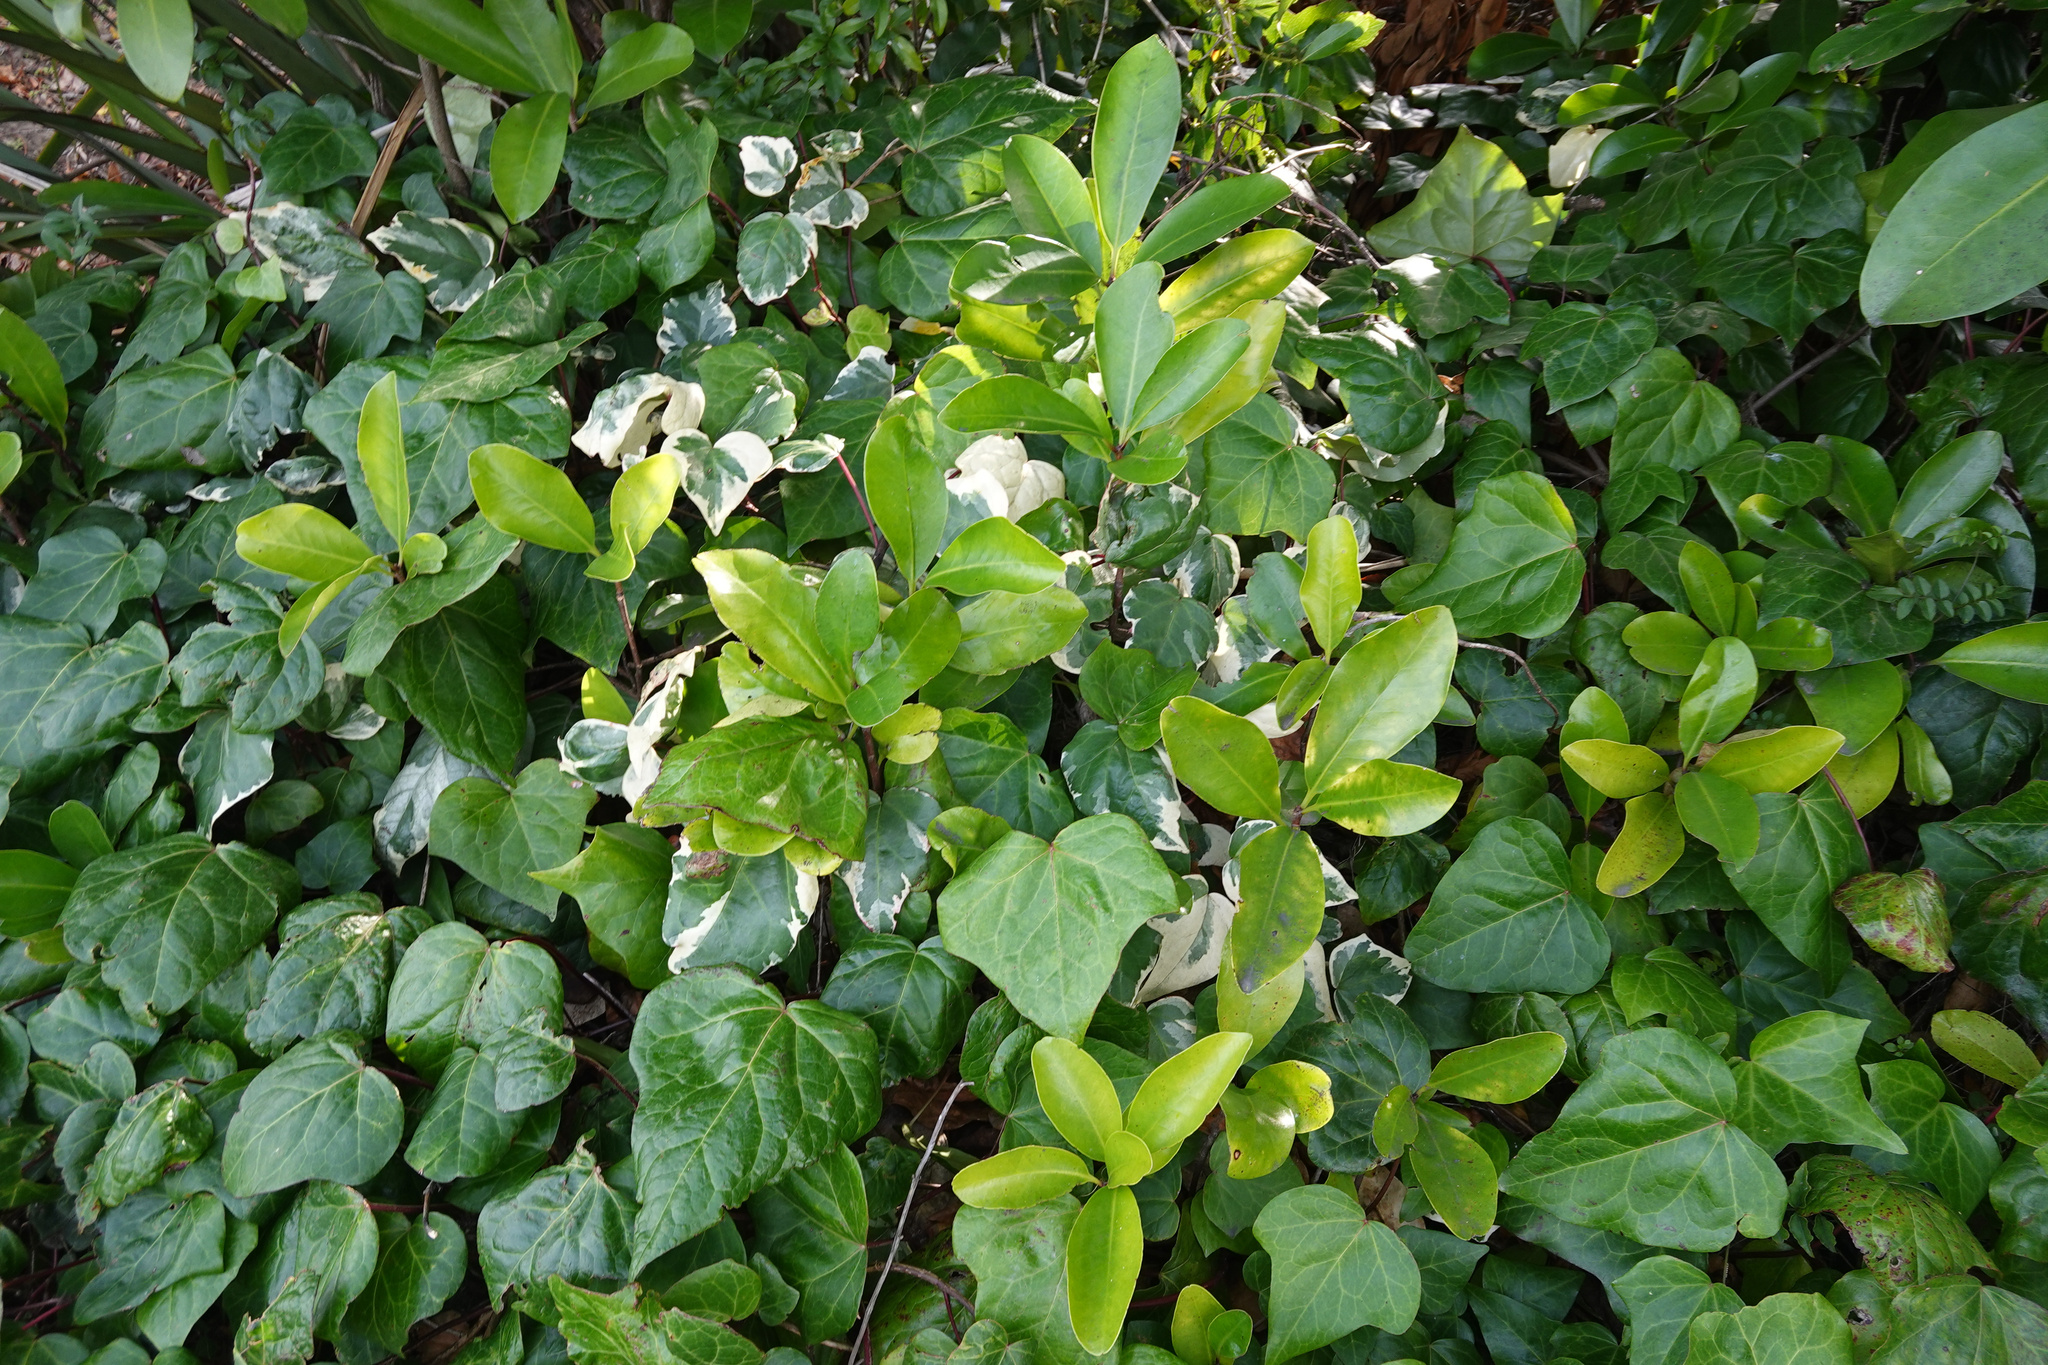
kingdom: Plantae
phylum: Tracheophyta
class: Magnoliopsida
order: Cucurbitales
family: Corynocarpaceae
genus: Corynocarpus
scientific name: Corynocarpus laevigatus
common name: New zealand laurel
